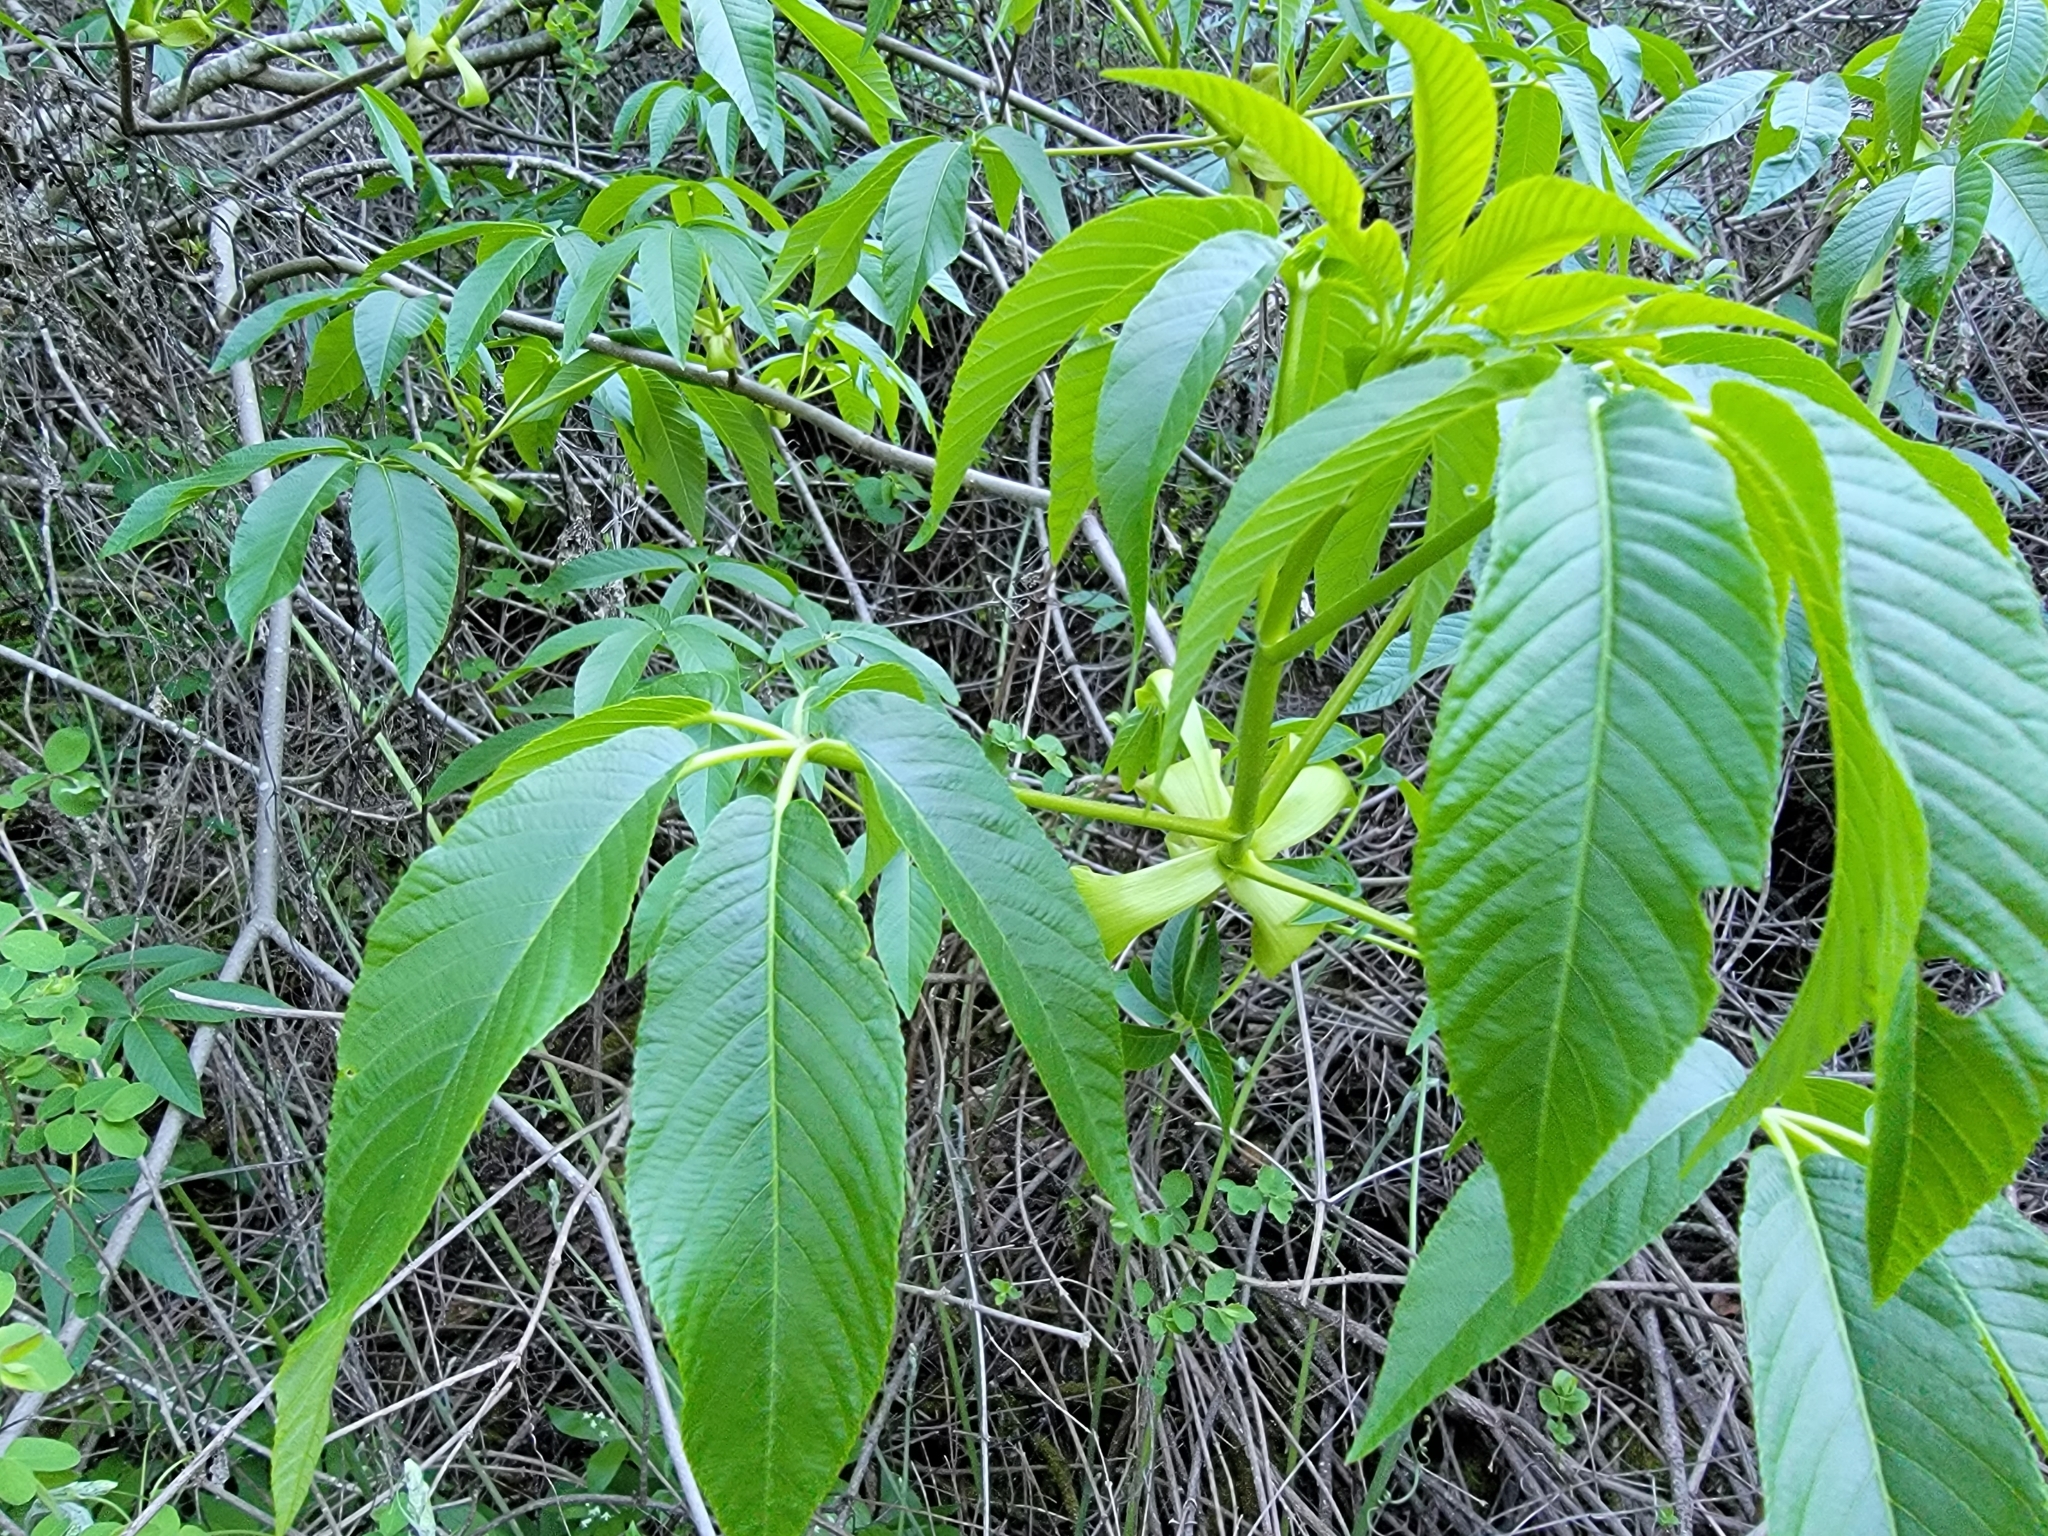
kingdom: Plantae
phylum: Tracheophyta
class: Magnoliopsida
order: Sapindales
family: Sapindaceae
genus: Aesculus
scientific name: Aesculus californica
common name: California buckeye
